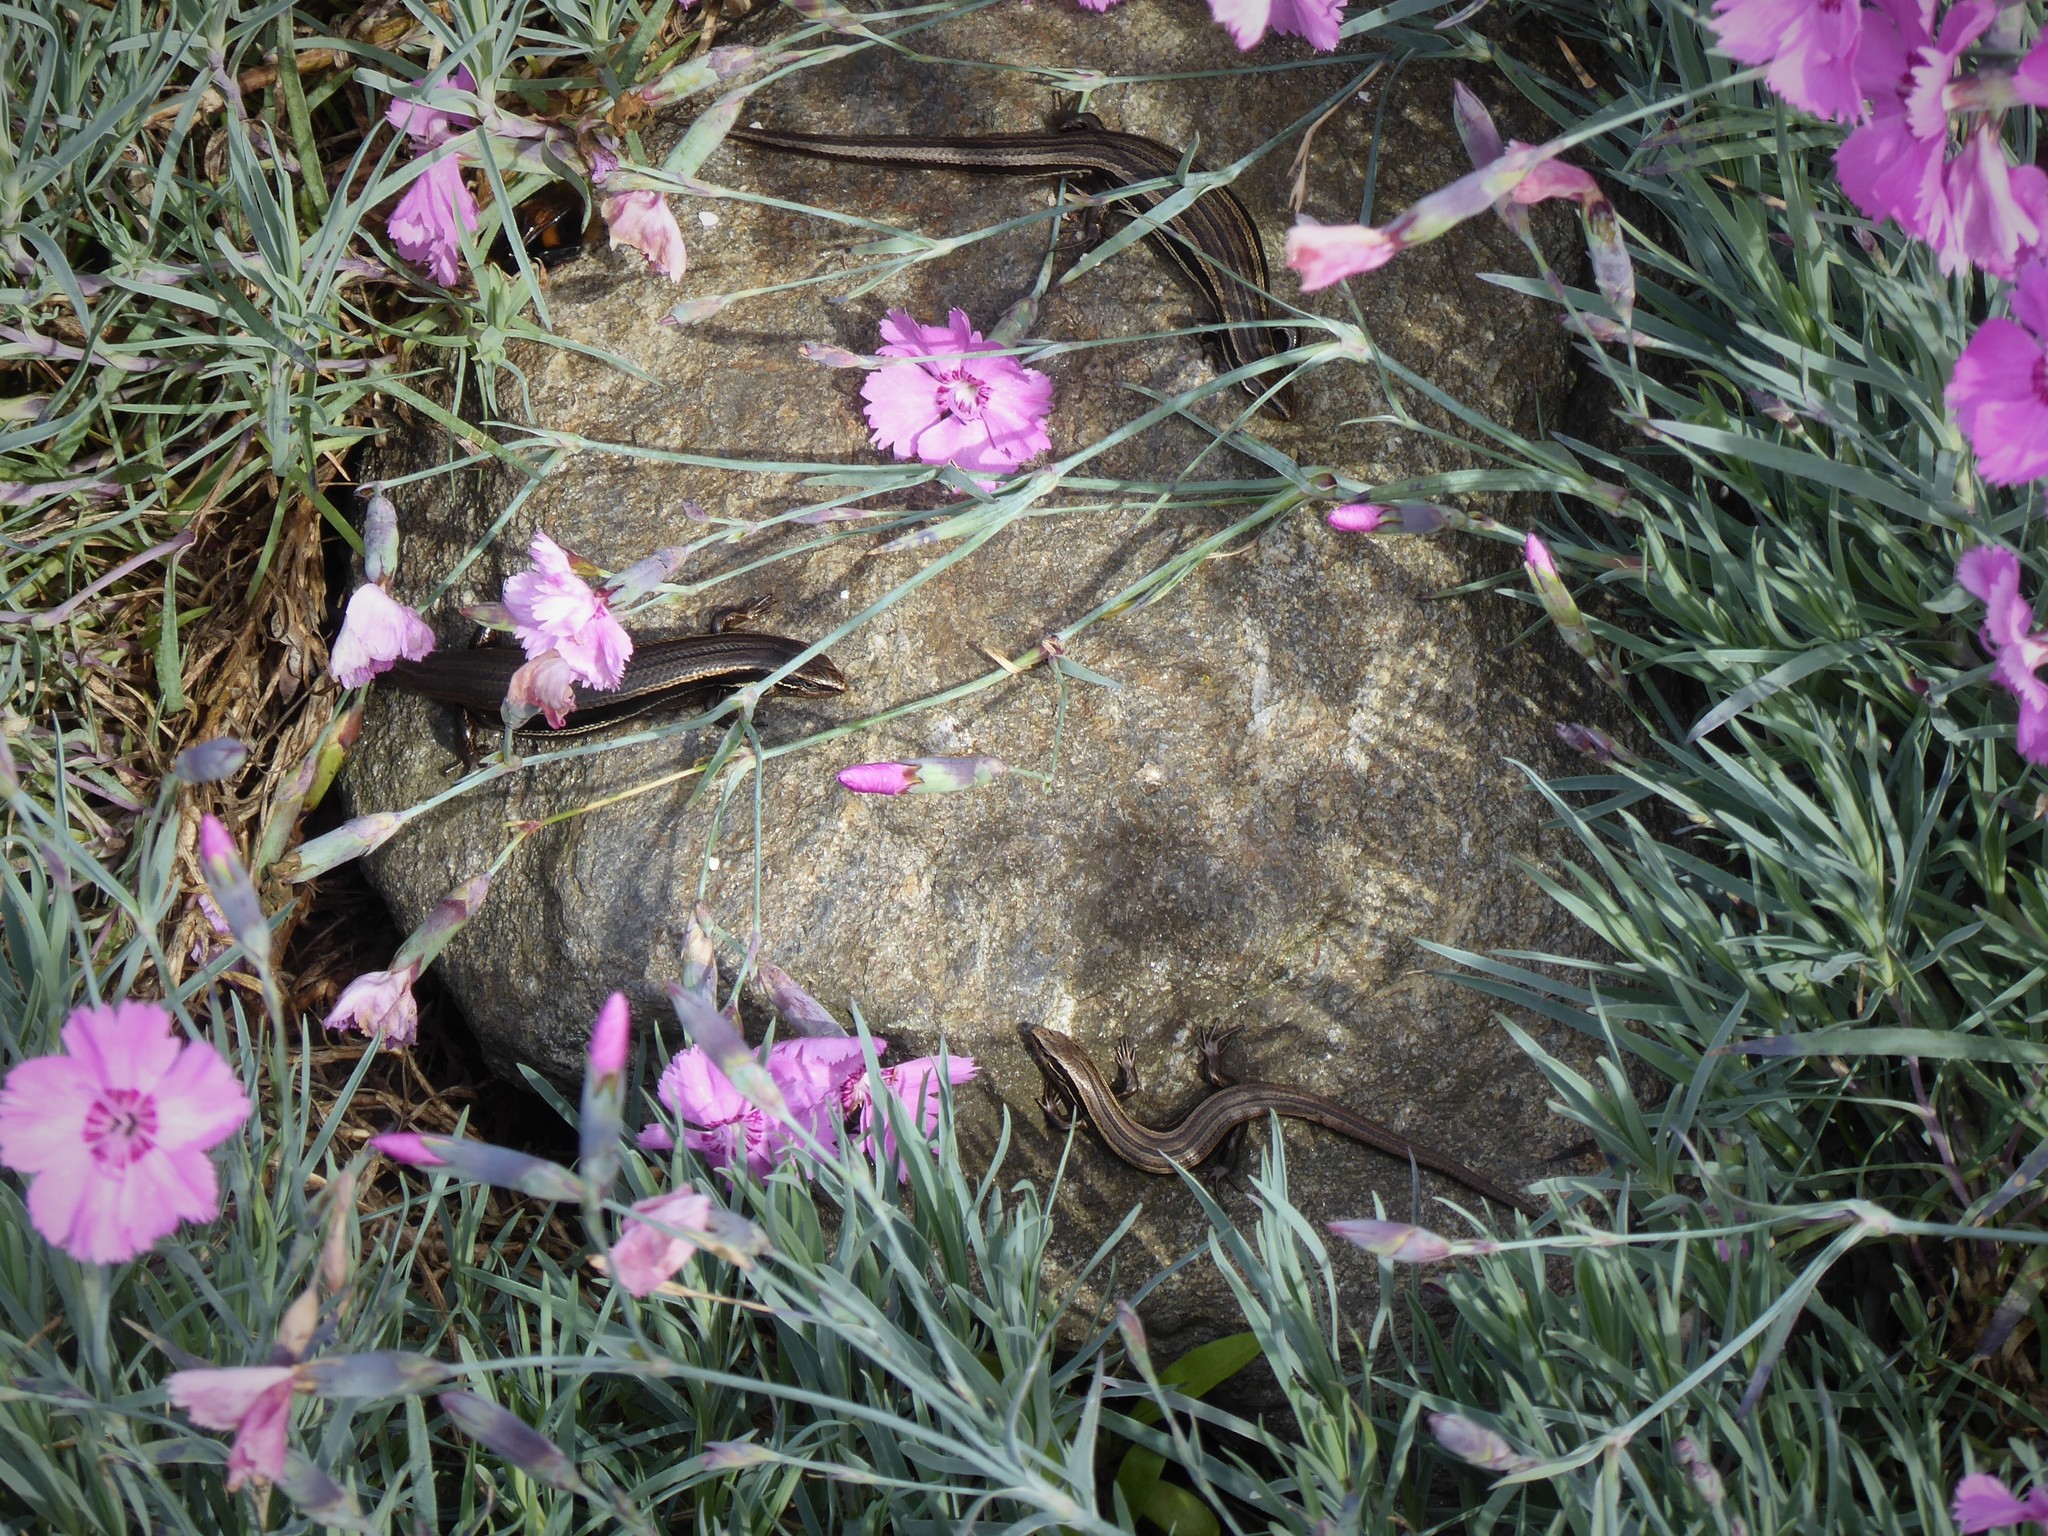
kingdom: Animalia
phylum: Chordata
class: Squamata
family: Scincidae
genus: Oligosoma
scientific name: Oligosoma polychroma
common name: Common new zealand skink
